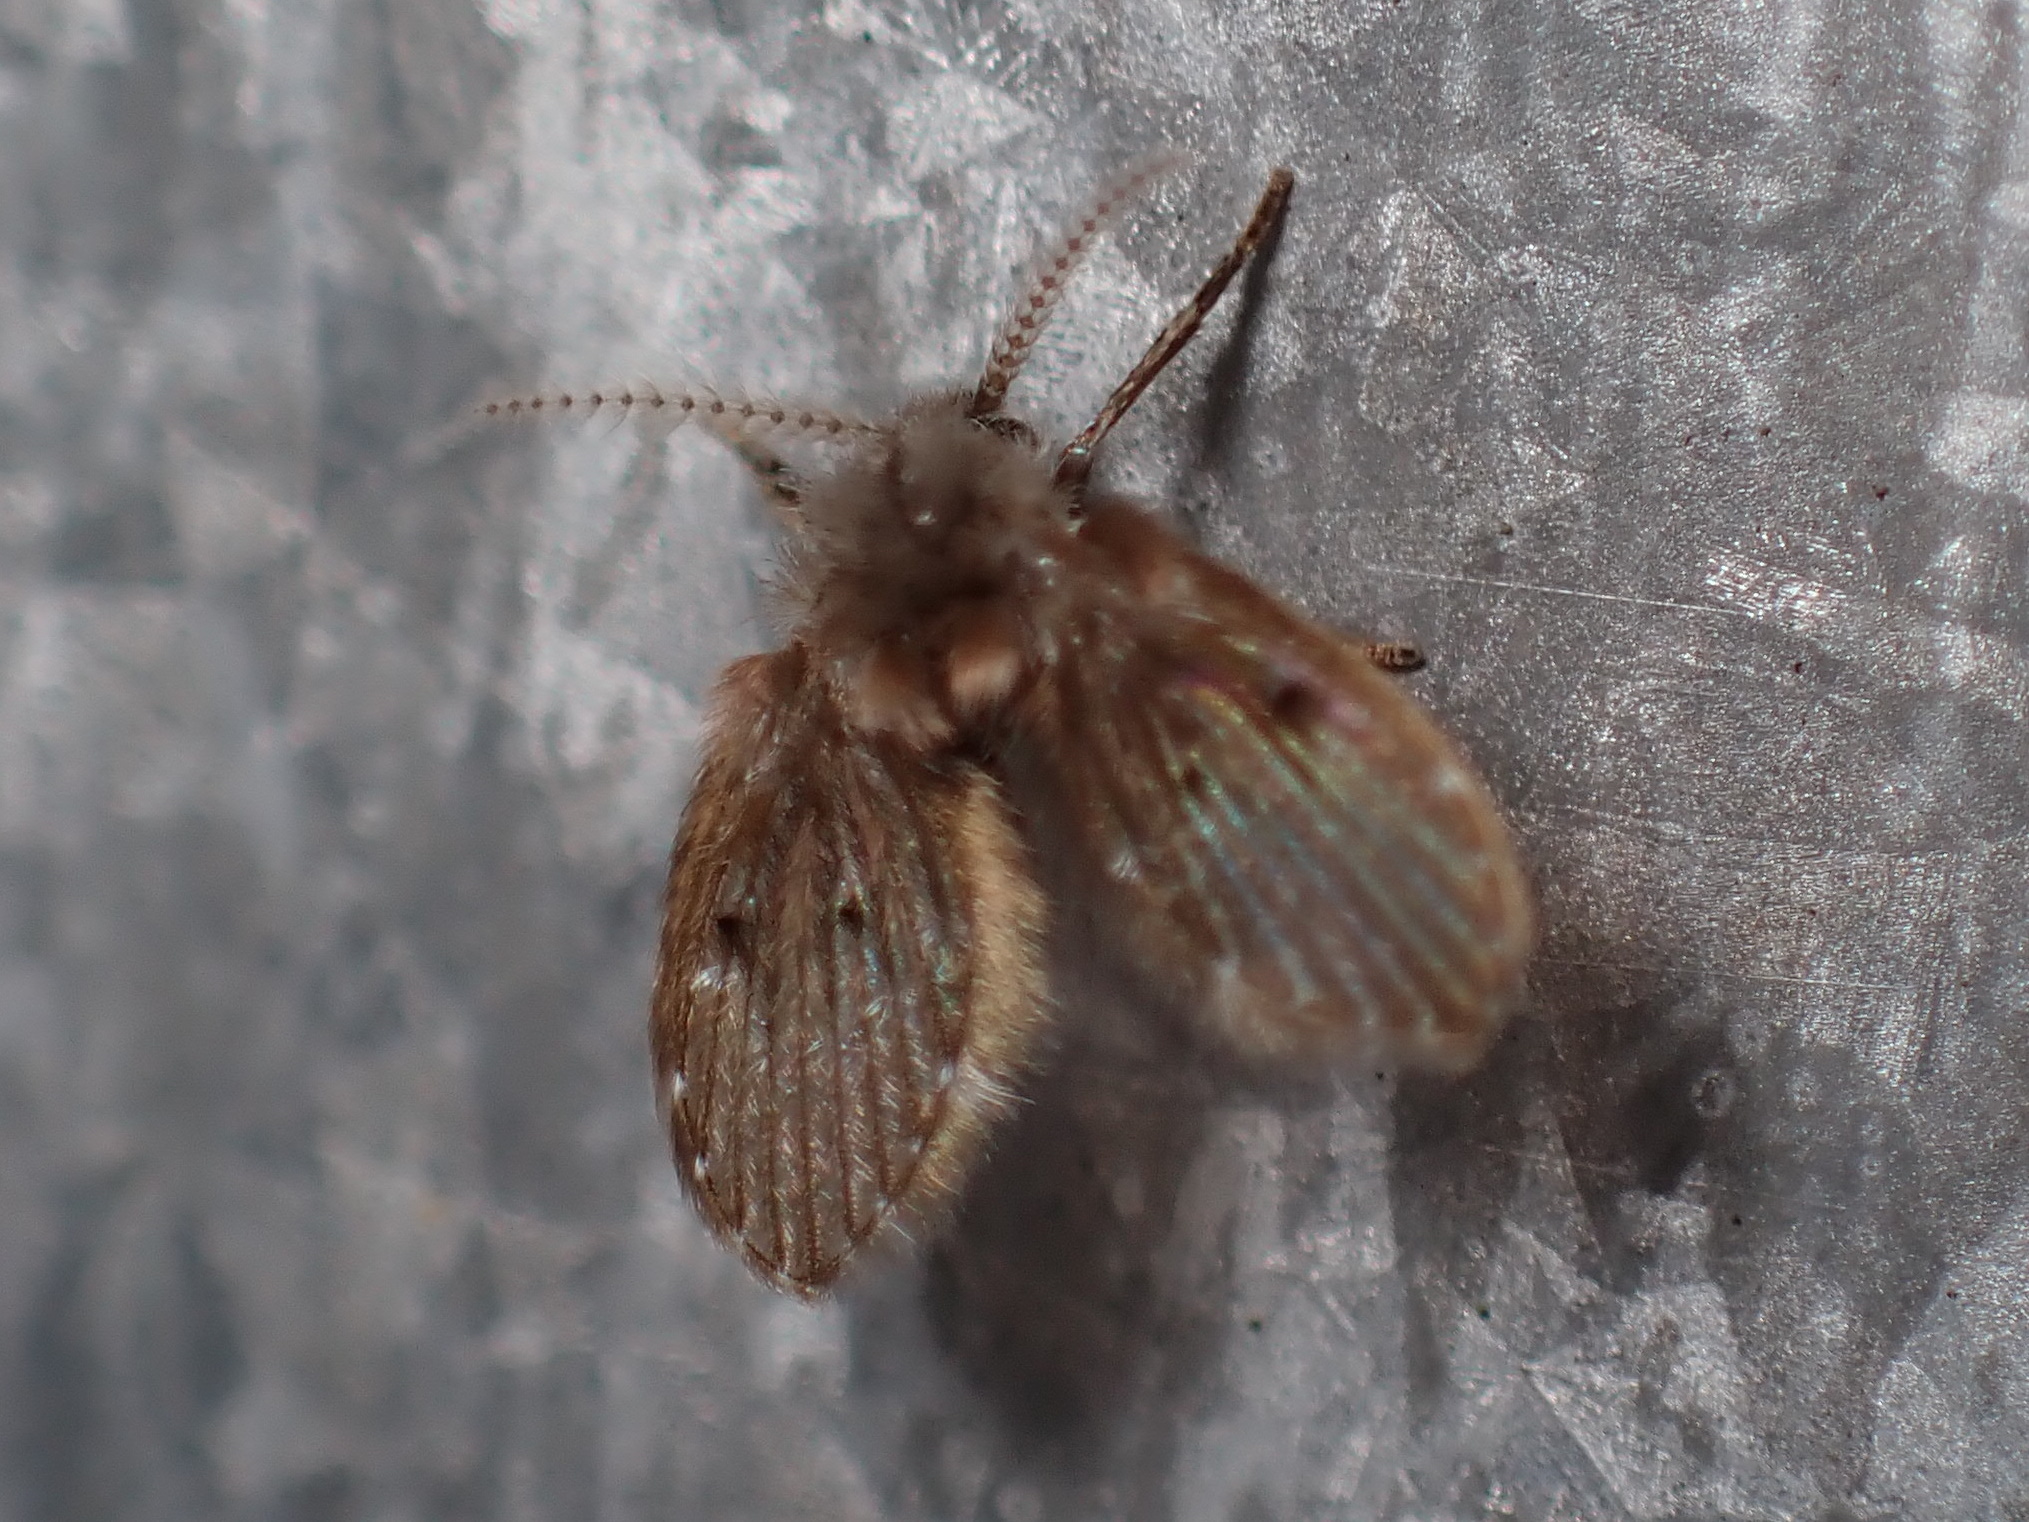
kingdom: Animalia
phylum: Arthropoda
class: Insecta
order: Diptera
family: Psychodidae
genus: Clogmia
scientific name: Clogmia albipunctatus
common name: White-spotted moth fly
